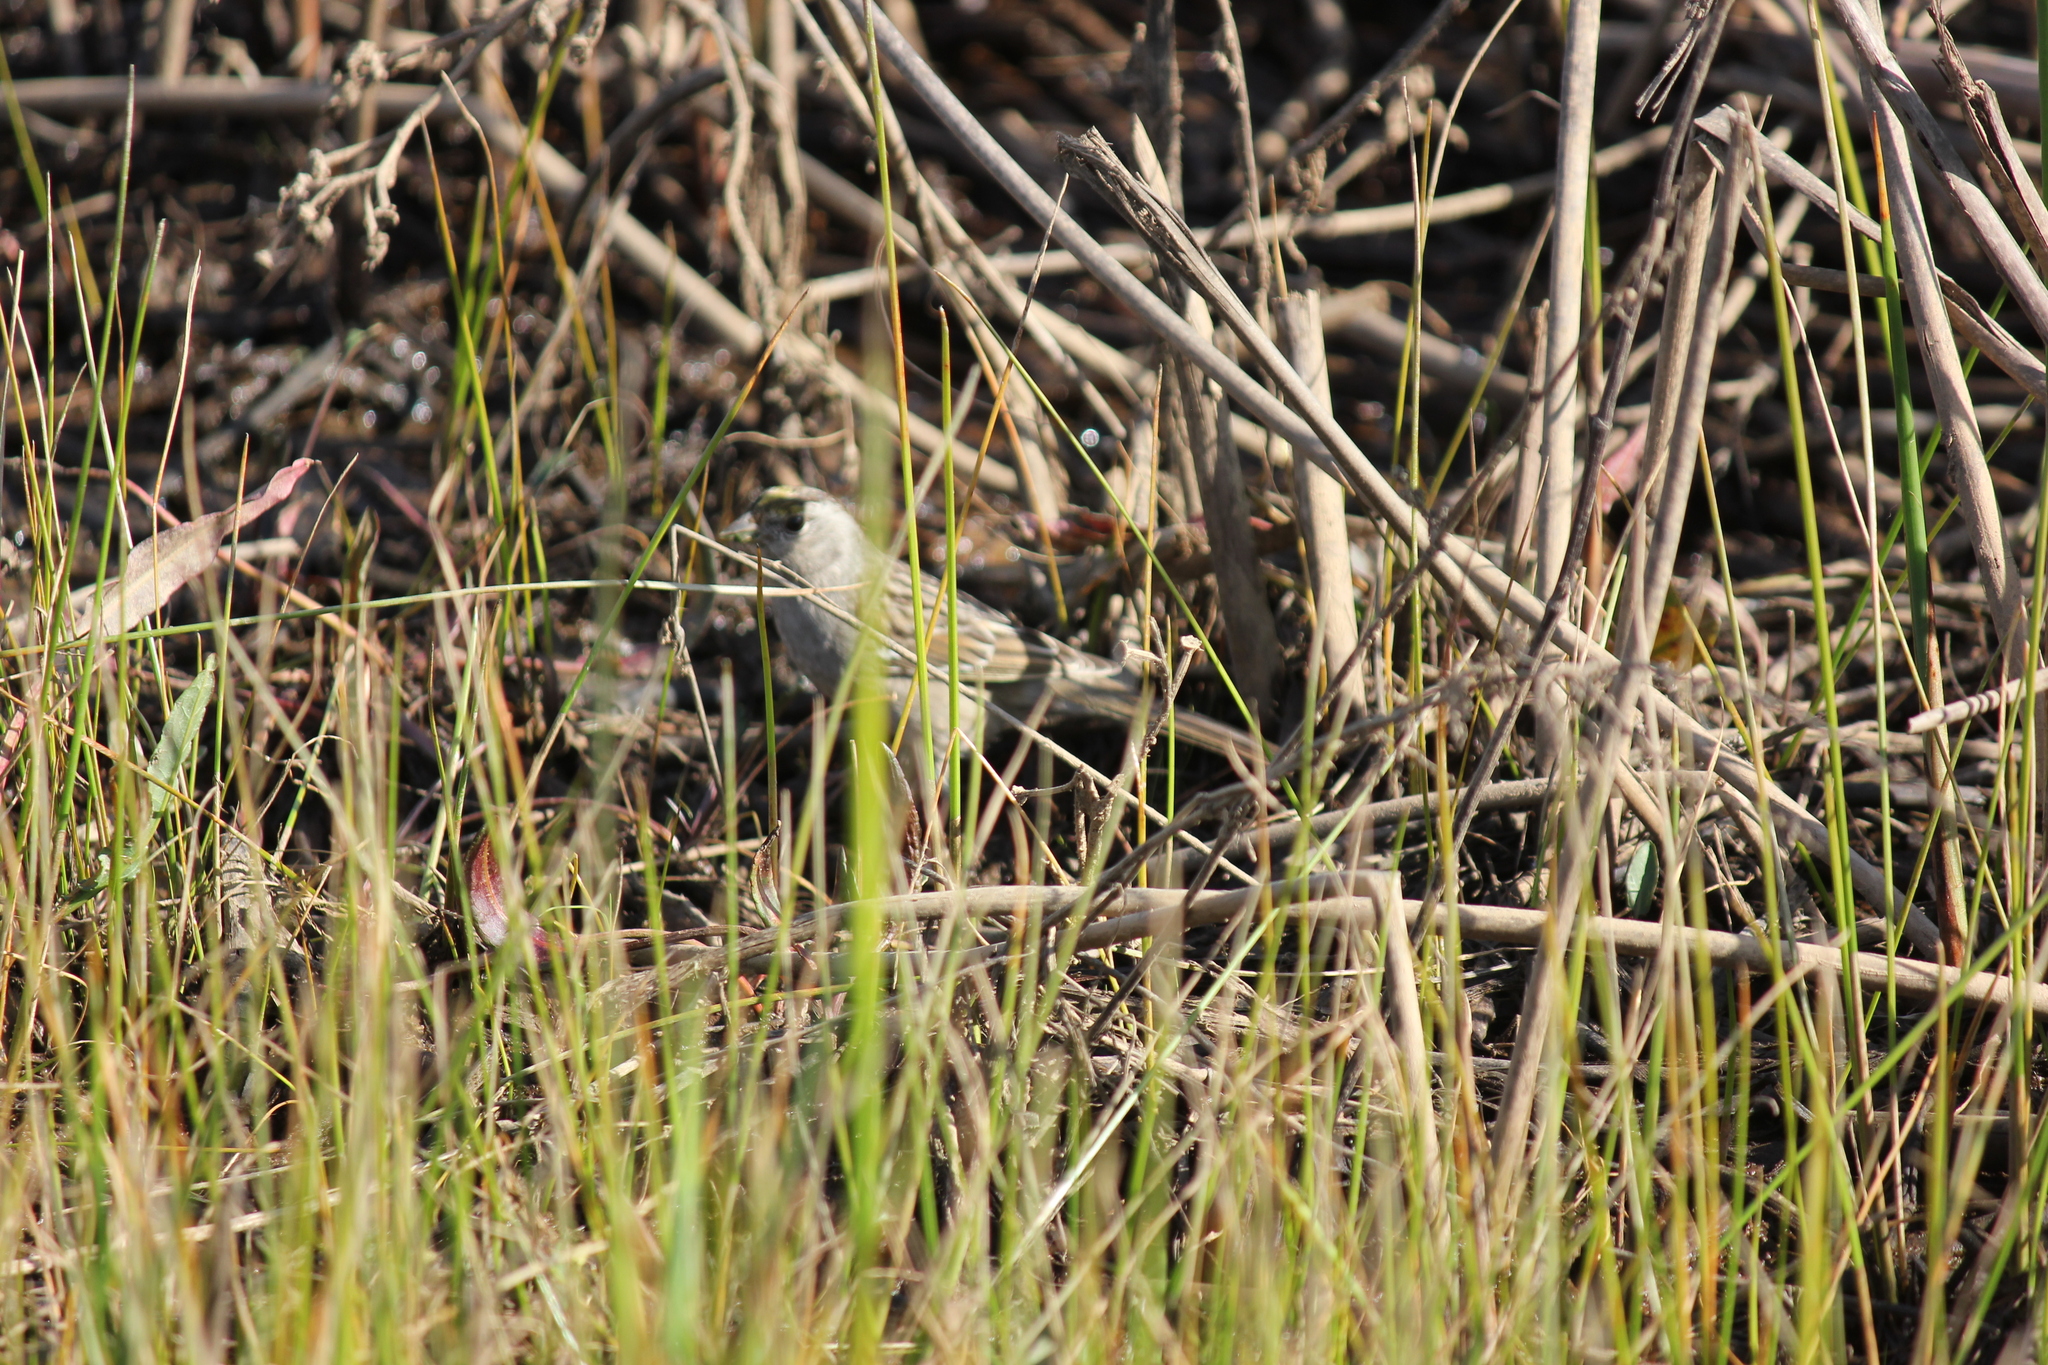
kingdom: Animalia
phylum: Chordata
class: Aves
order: Passeriformes
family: Passerellidae
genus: Zonotrichia
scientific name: Zonotrichia atricapilla
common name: Golden-crowned sparrow
